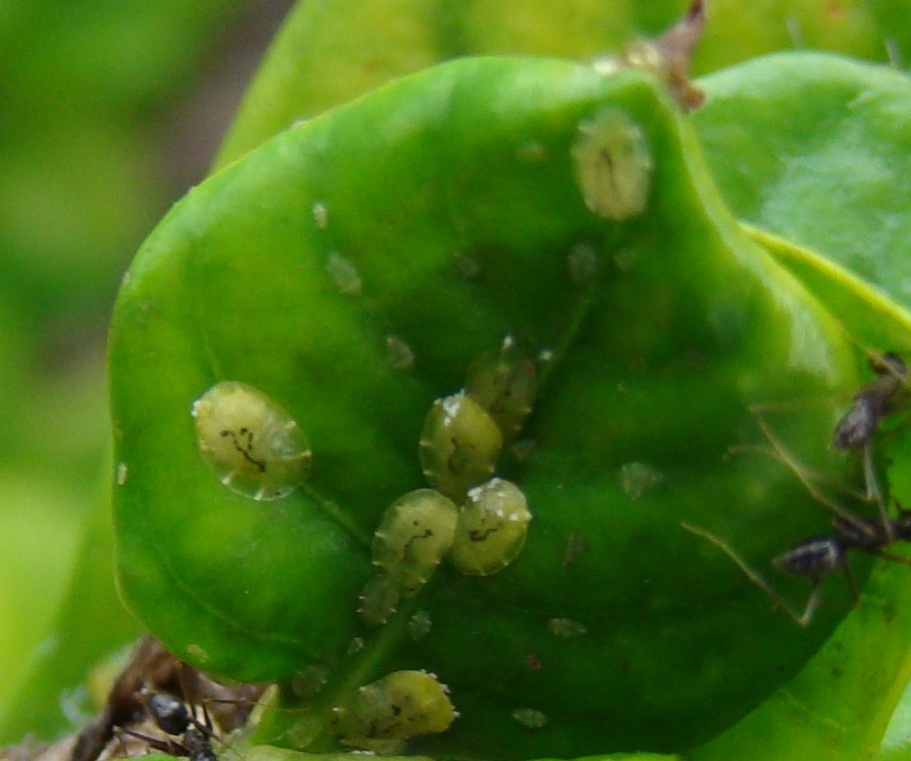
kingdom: Animalia
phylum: Arthropoda
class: Insecta
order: Hemiptera
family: Coccidae
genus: Coccus
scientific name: Coccus viridis
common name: Green scale
